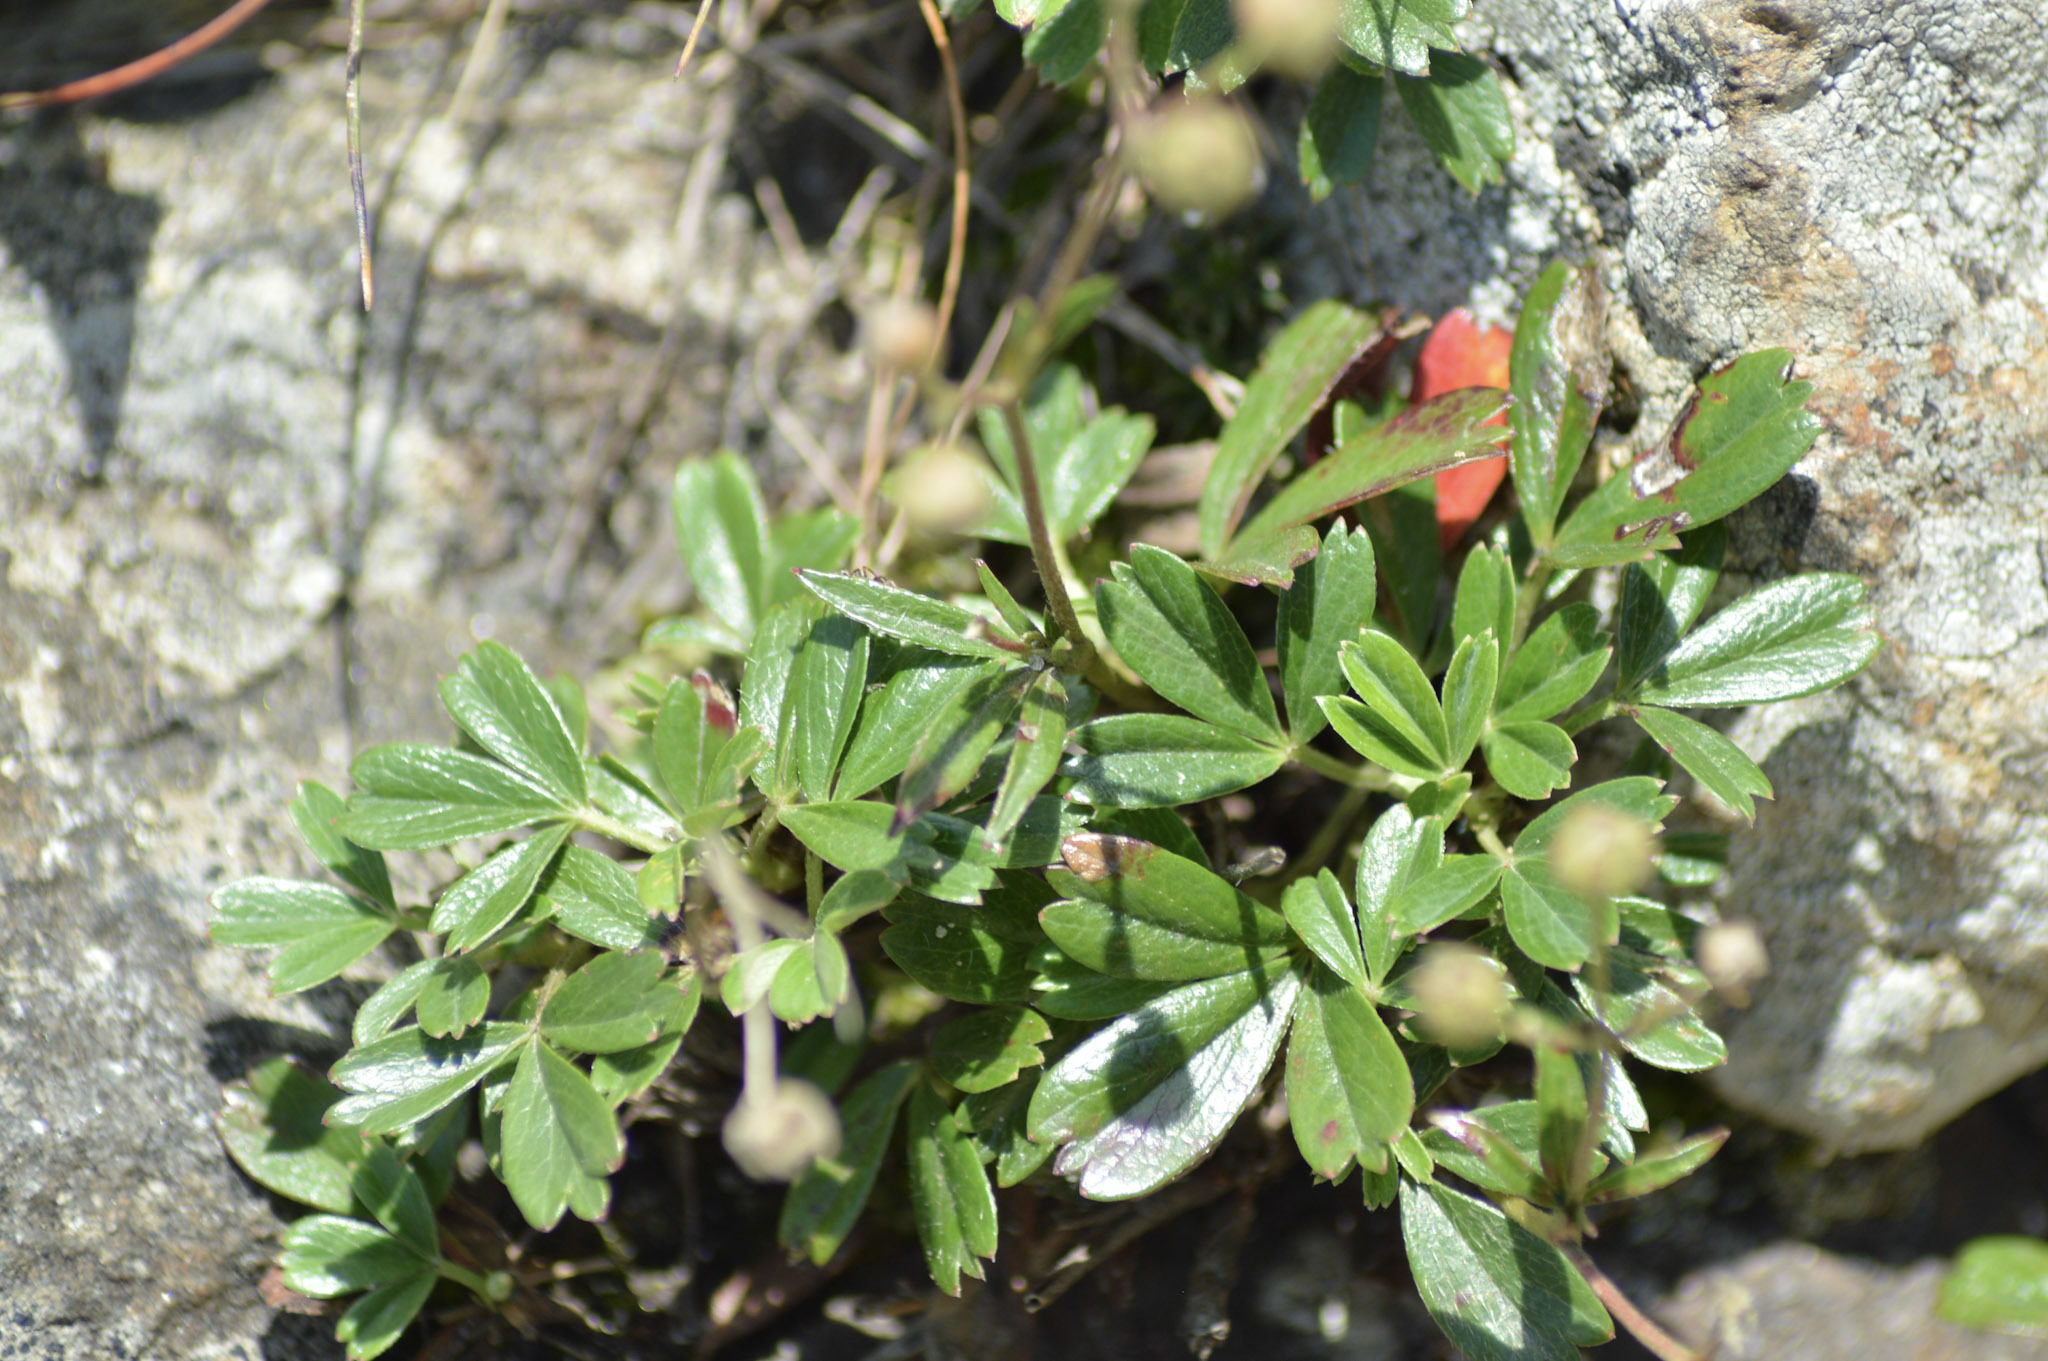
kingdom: Plantae
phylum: Tracheophyta
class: Magnoliopsida
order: Rosales
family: Rosaceae
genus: Sibbaldia
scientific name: Sibbaldia tridentata
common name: Three-toothed cinquefoil
